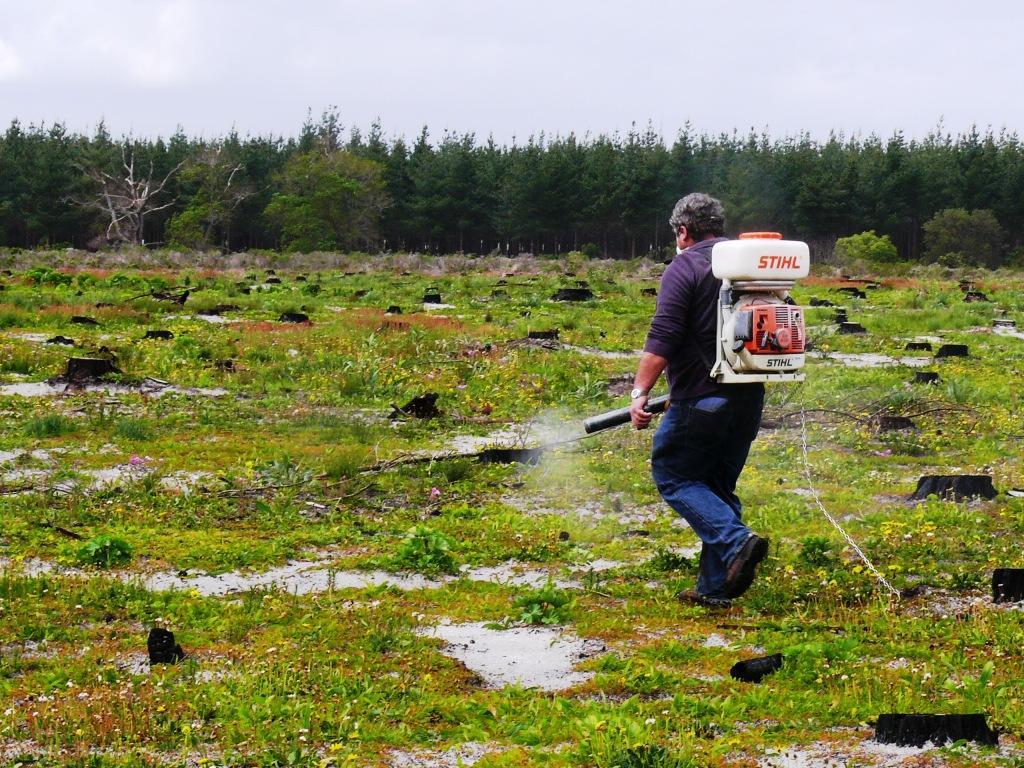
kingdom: Fungi
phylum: Basidiomycota
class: Pucciniomycetes
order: Pucciniales
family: Uromycladiaceae
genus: Uromycladium
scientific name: Uromycladium morrisii
